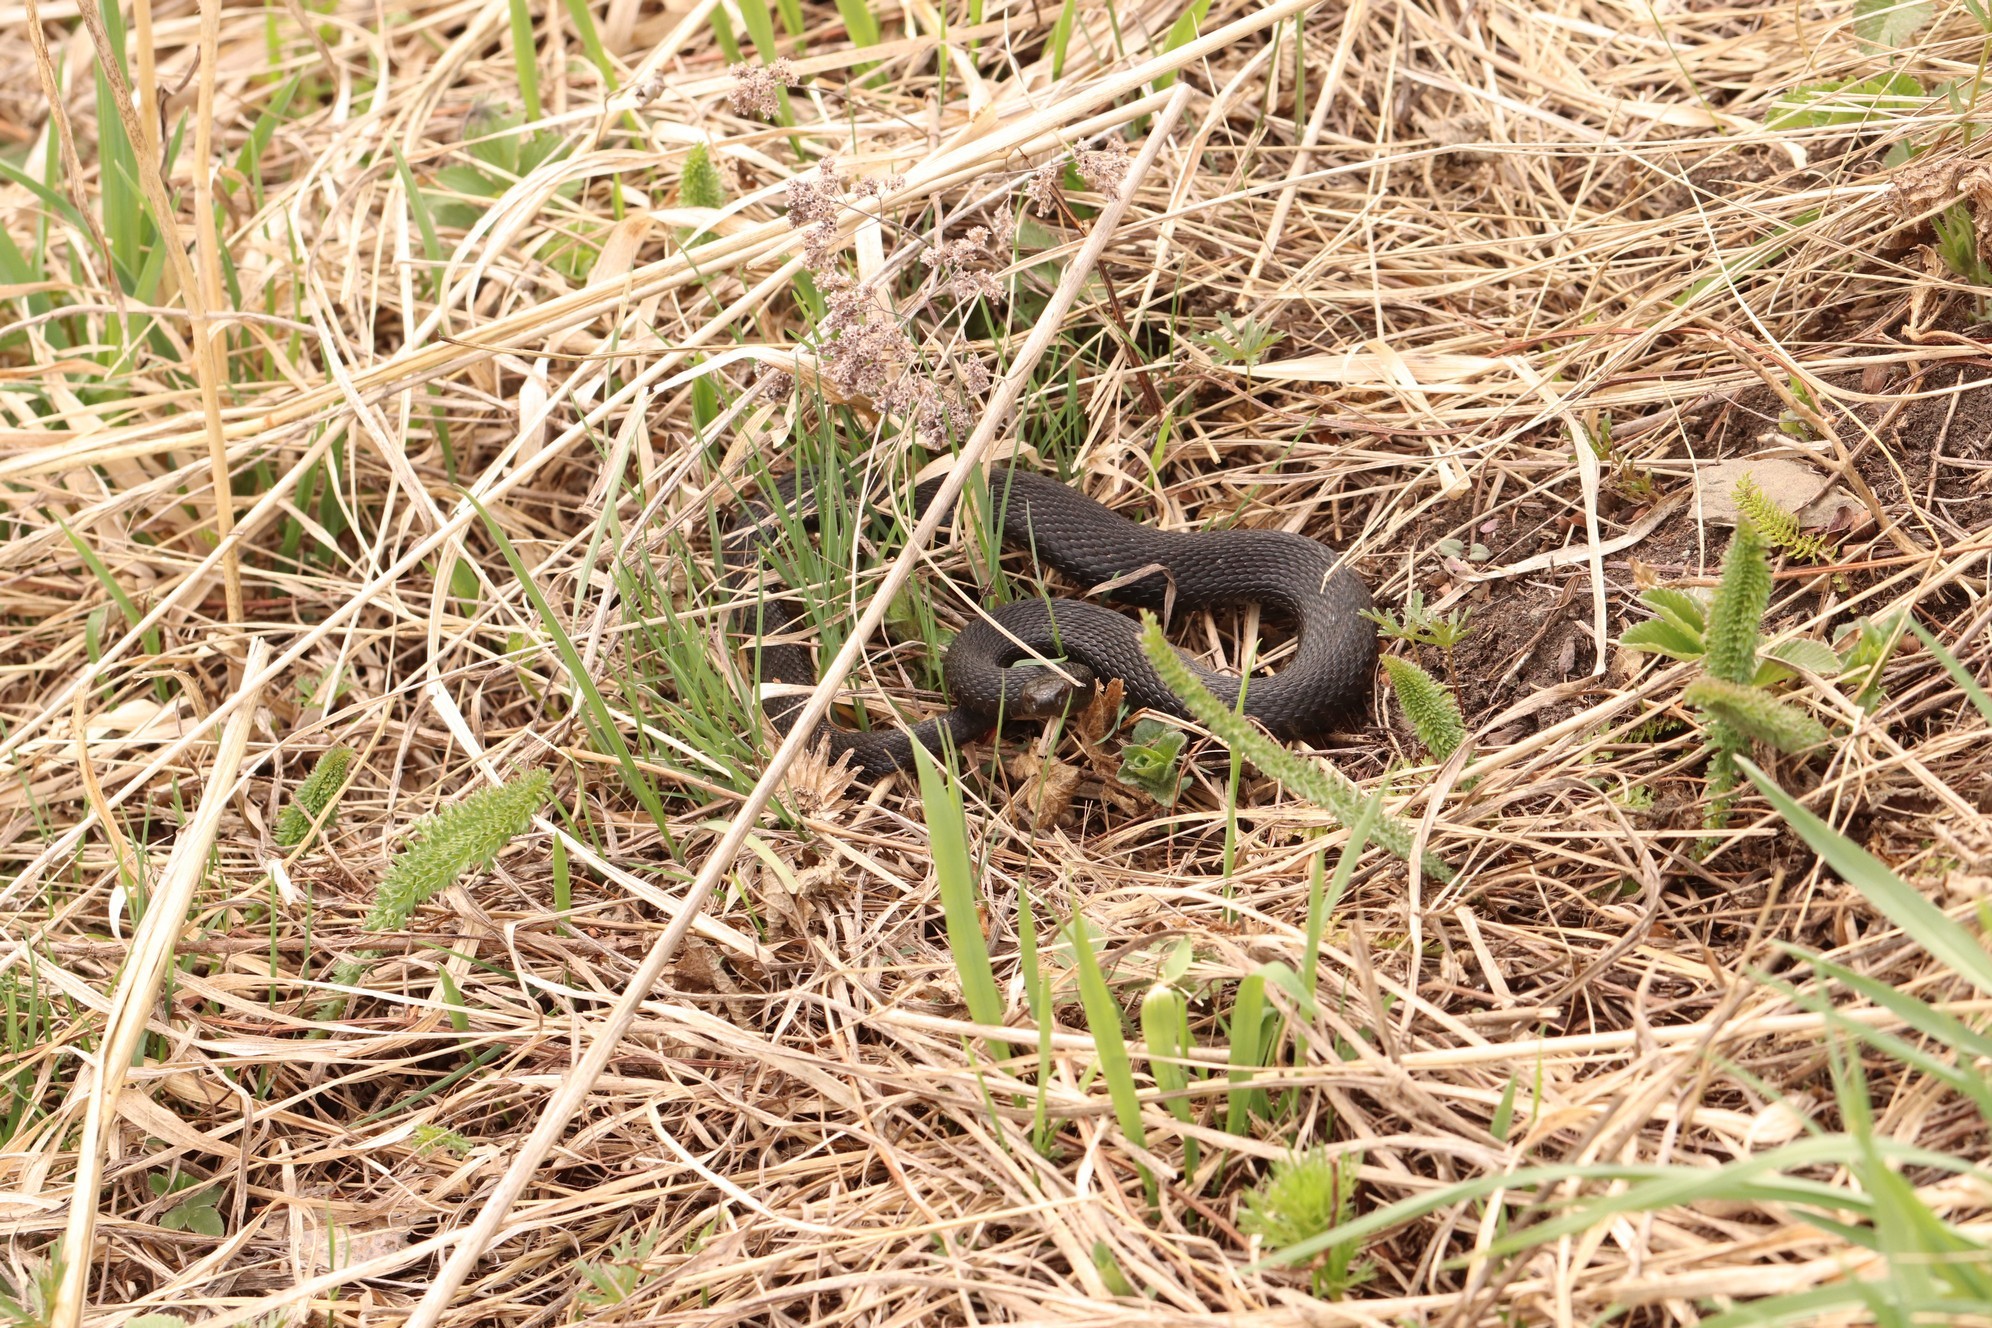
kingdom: Animalia
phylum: Chordata
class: Squamata
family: Viperidae
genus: Vipera
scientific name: Vipera berus
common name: Adder
